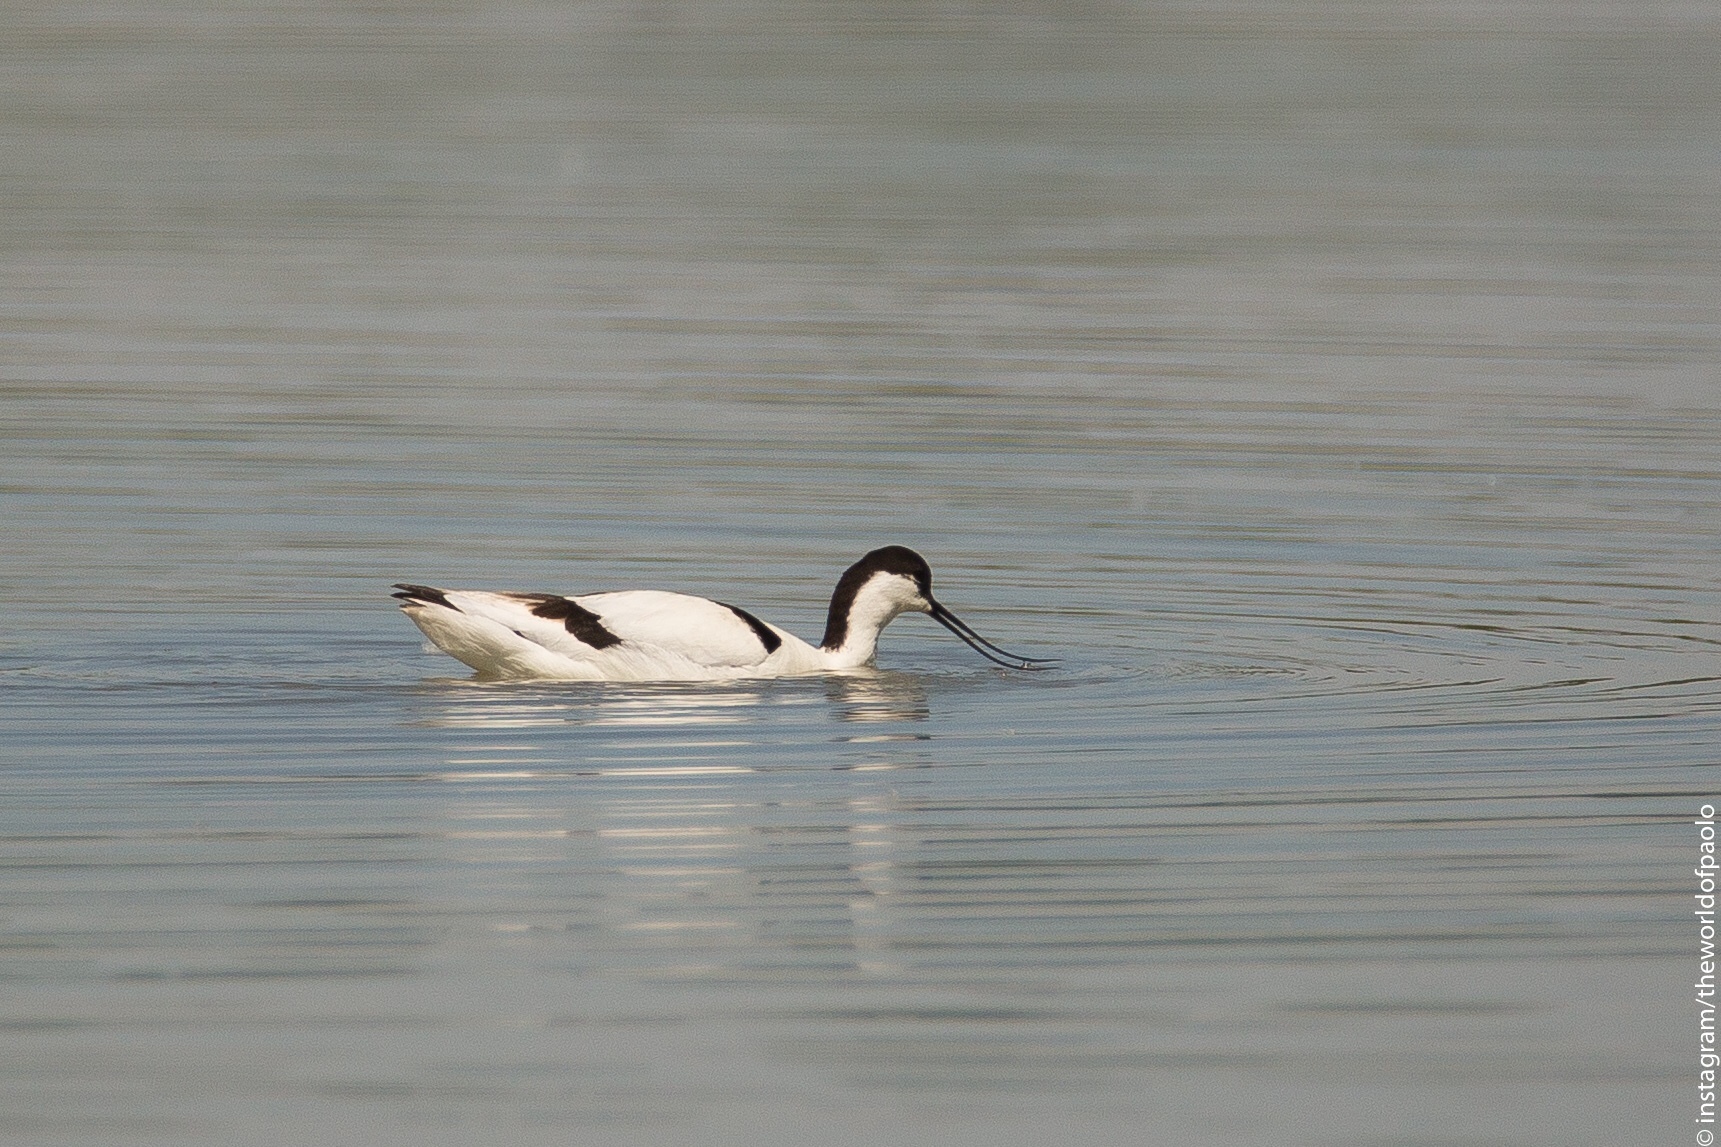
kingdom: Animalia
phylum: Chordata
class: Aves
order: Charadriiformes
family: Recurvirostridae
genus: Recurvirostra
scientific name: Recurvirostra avosetta
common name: Pied avocet
